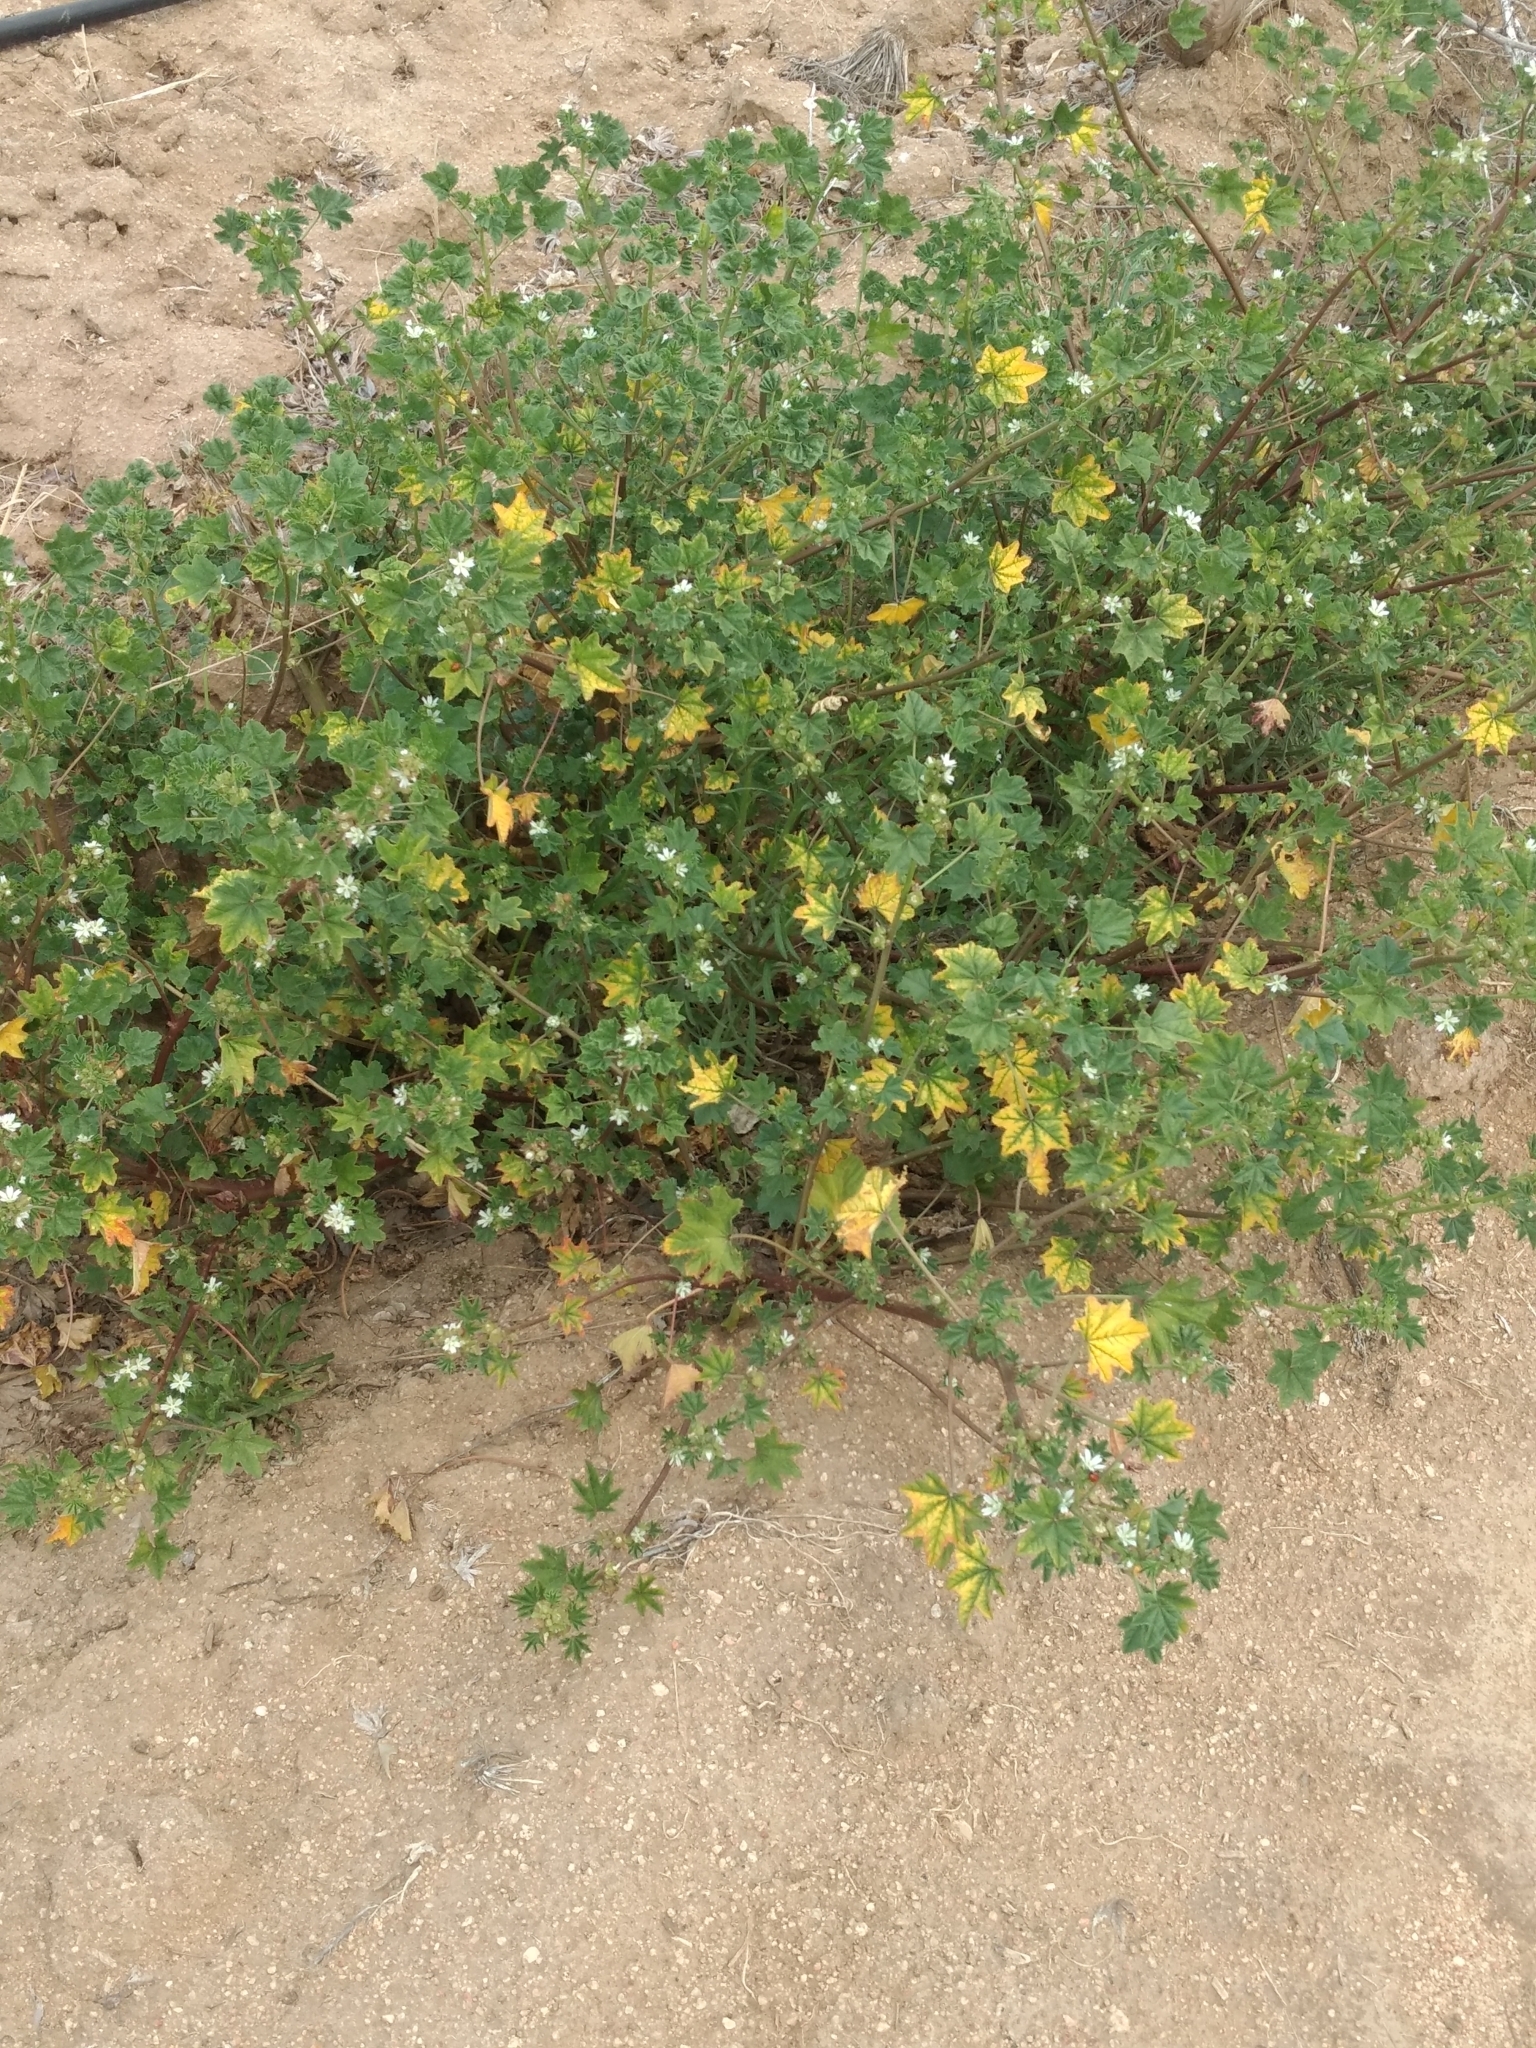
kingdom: Plantae
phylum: Tracheophyta
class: Magnoliopsida
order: Malvales
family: Malvaceae
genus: Malva
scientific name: Malva parviflora
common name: Least mallow
